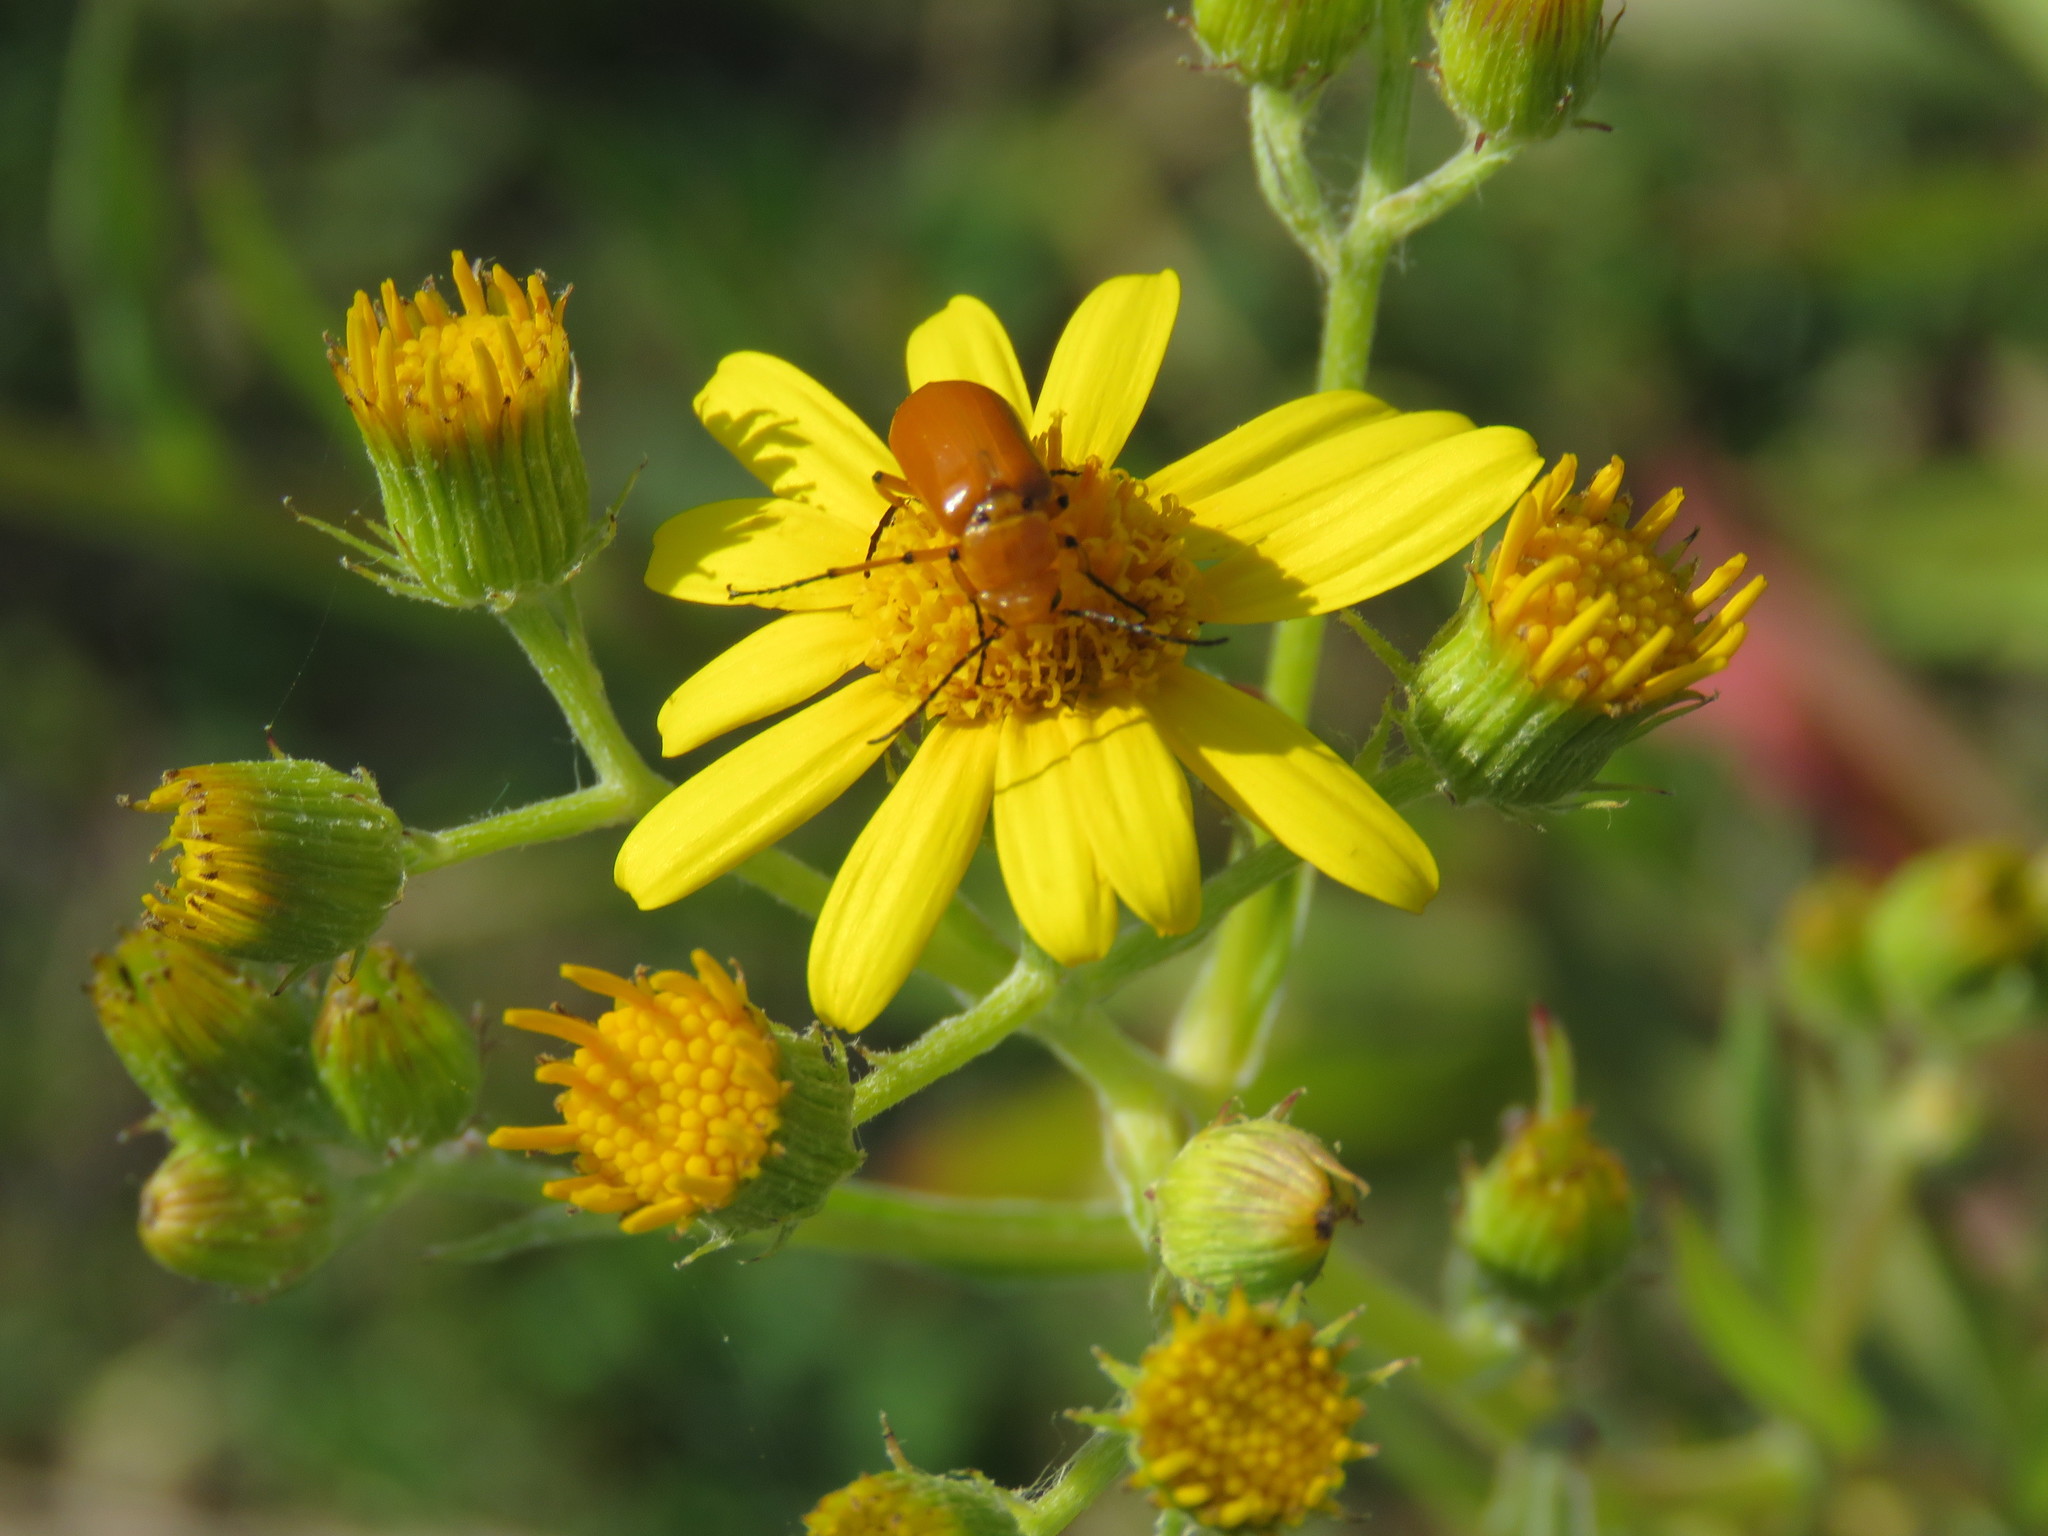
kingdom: Animalia
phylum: Arthropoda
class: Insecta
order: Coleoptera
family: Meloidae
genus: Nemognatha
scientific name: Nemognatha
